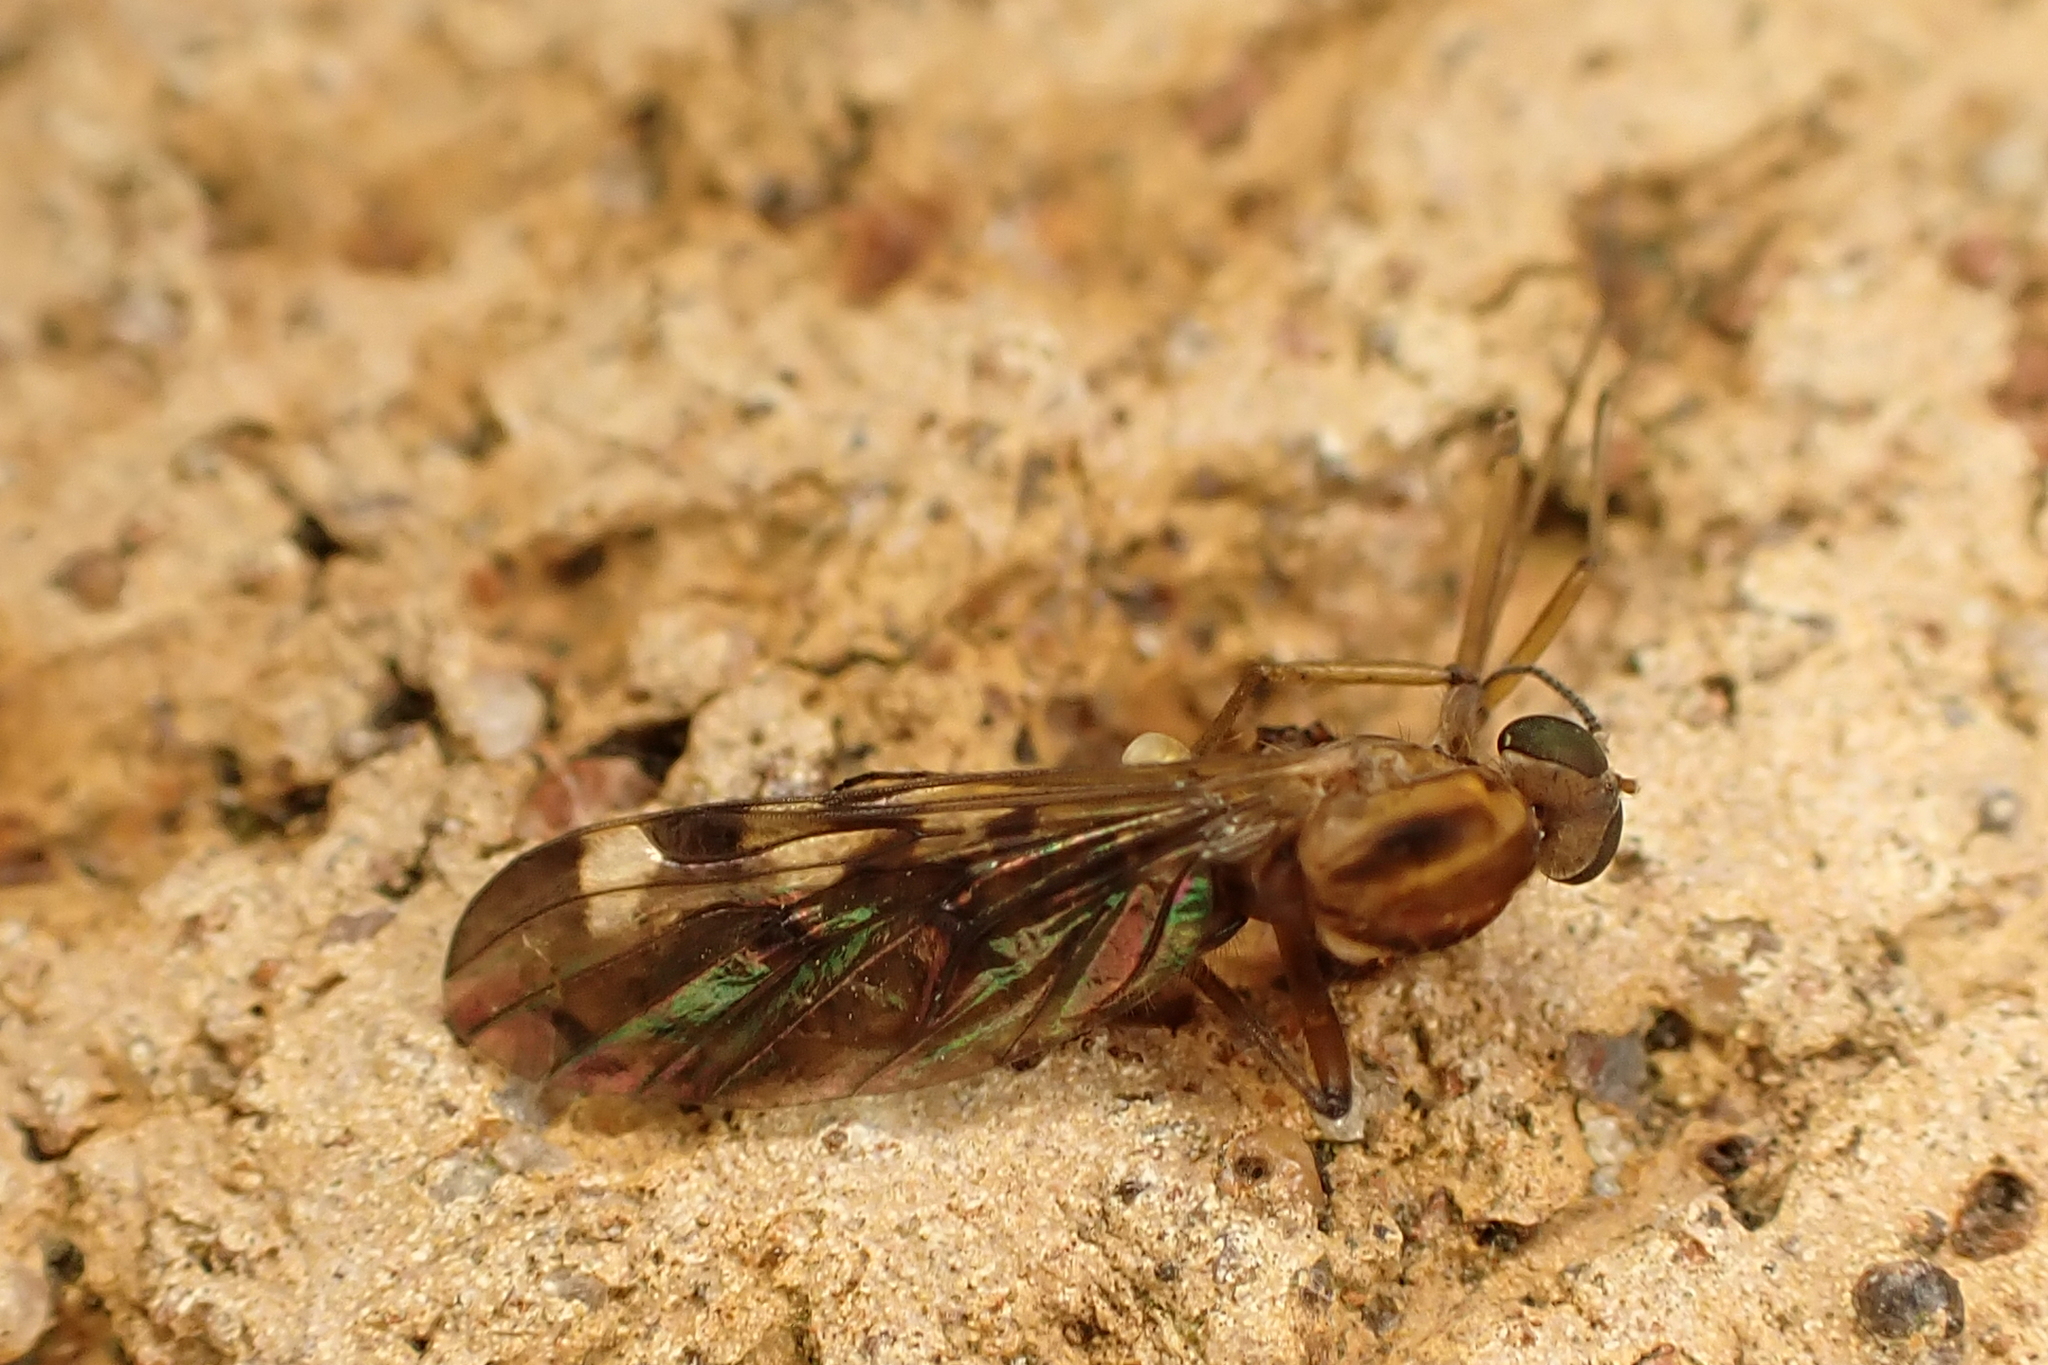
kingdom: Animalia
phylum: Arthropoda
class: Insecta
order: Diptera
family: Anisopodidae
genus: Sylvicola
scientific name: Sylvicola notatus
